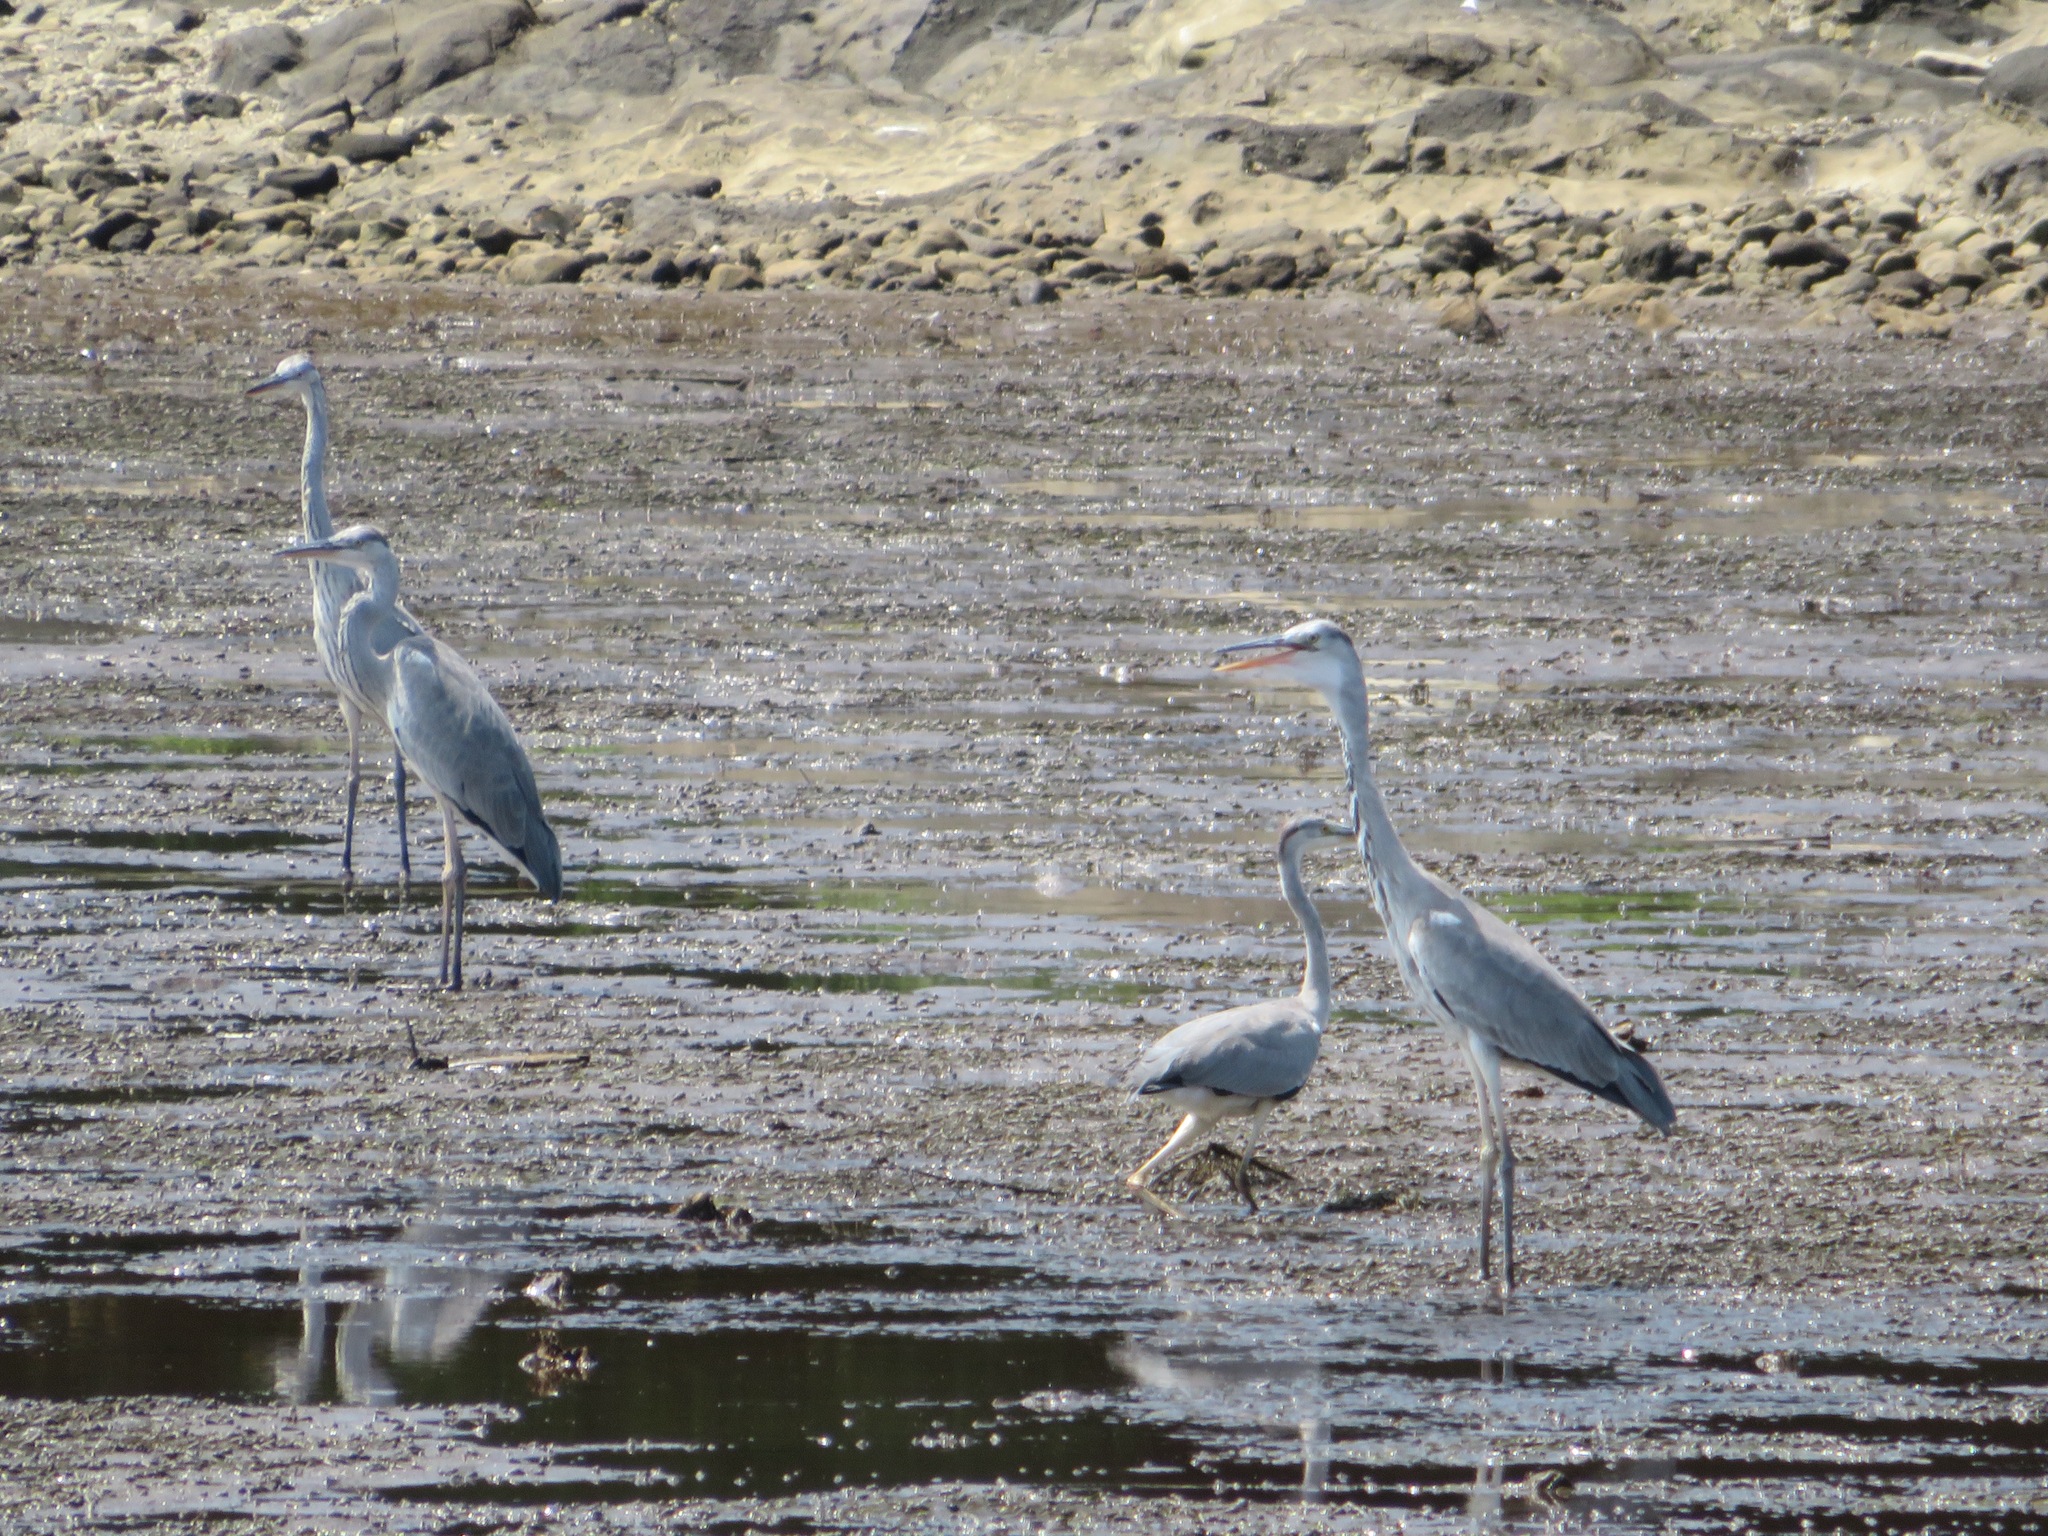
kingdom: Animalia
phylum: Chordata
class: Aves
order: Pelecaniformes
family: Ardeidae
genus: Ardea
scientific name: Ardea cinerea
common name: Grey heron
